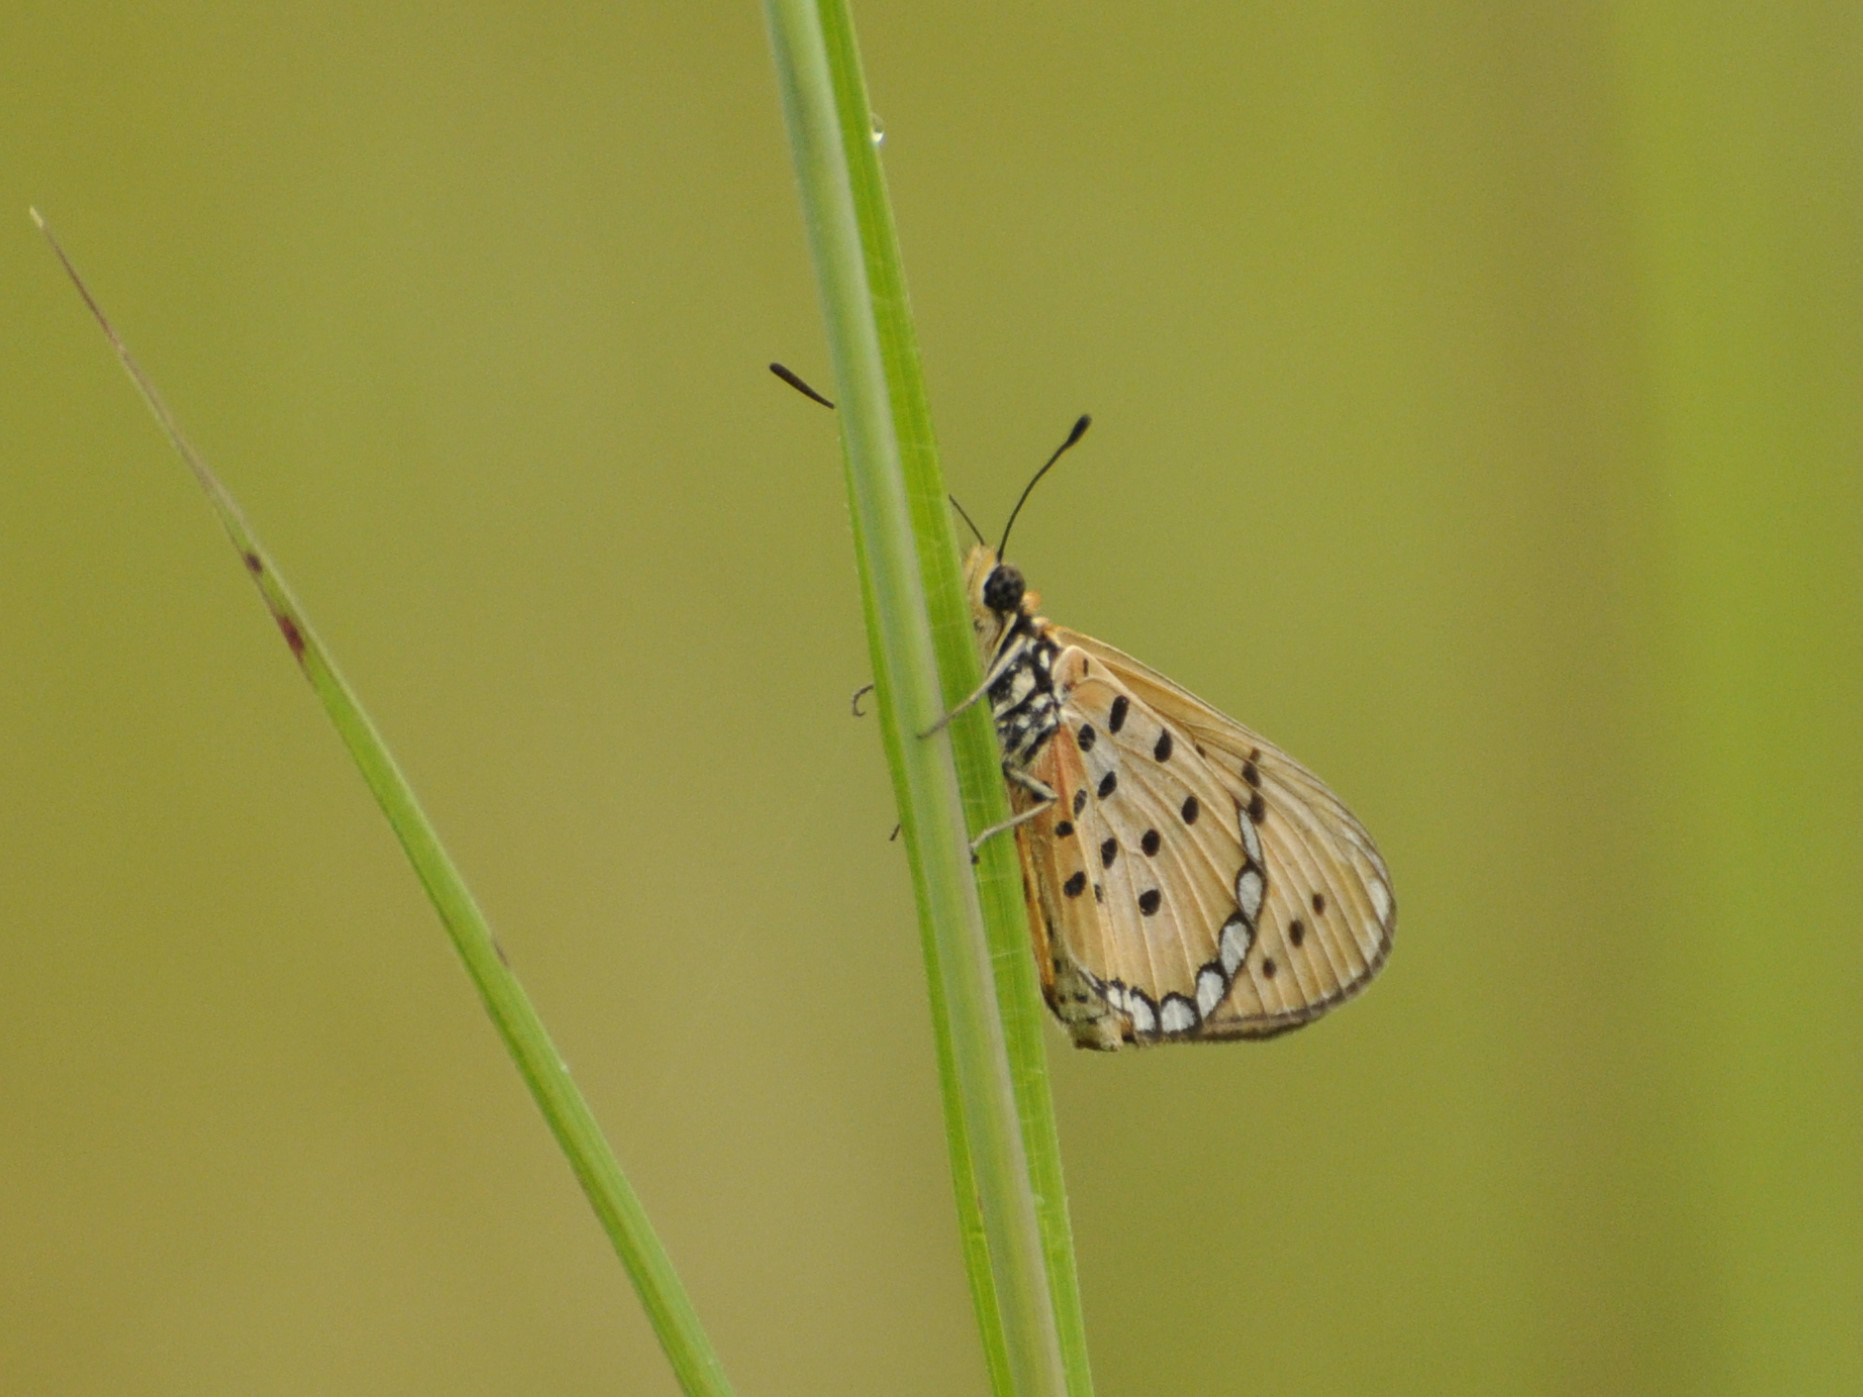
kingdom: Animalia
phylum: Arthropoda
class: Insecta
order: Lepidoptera
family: Nymphalidae
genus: Rubraea
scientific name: Rubraea
